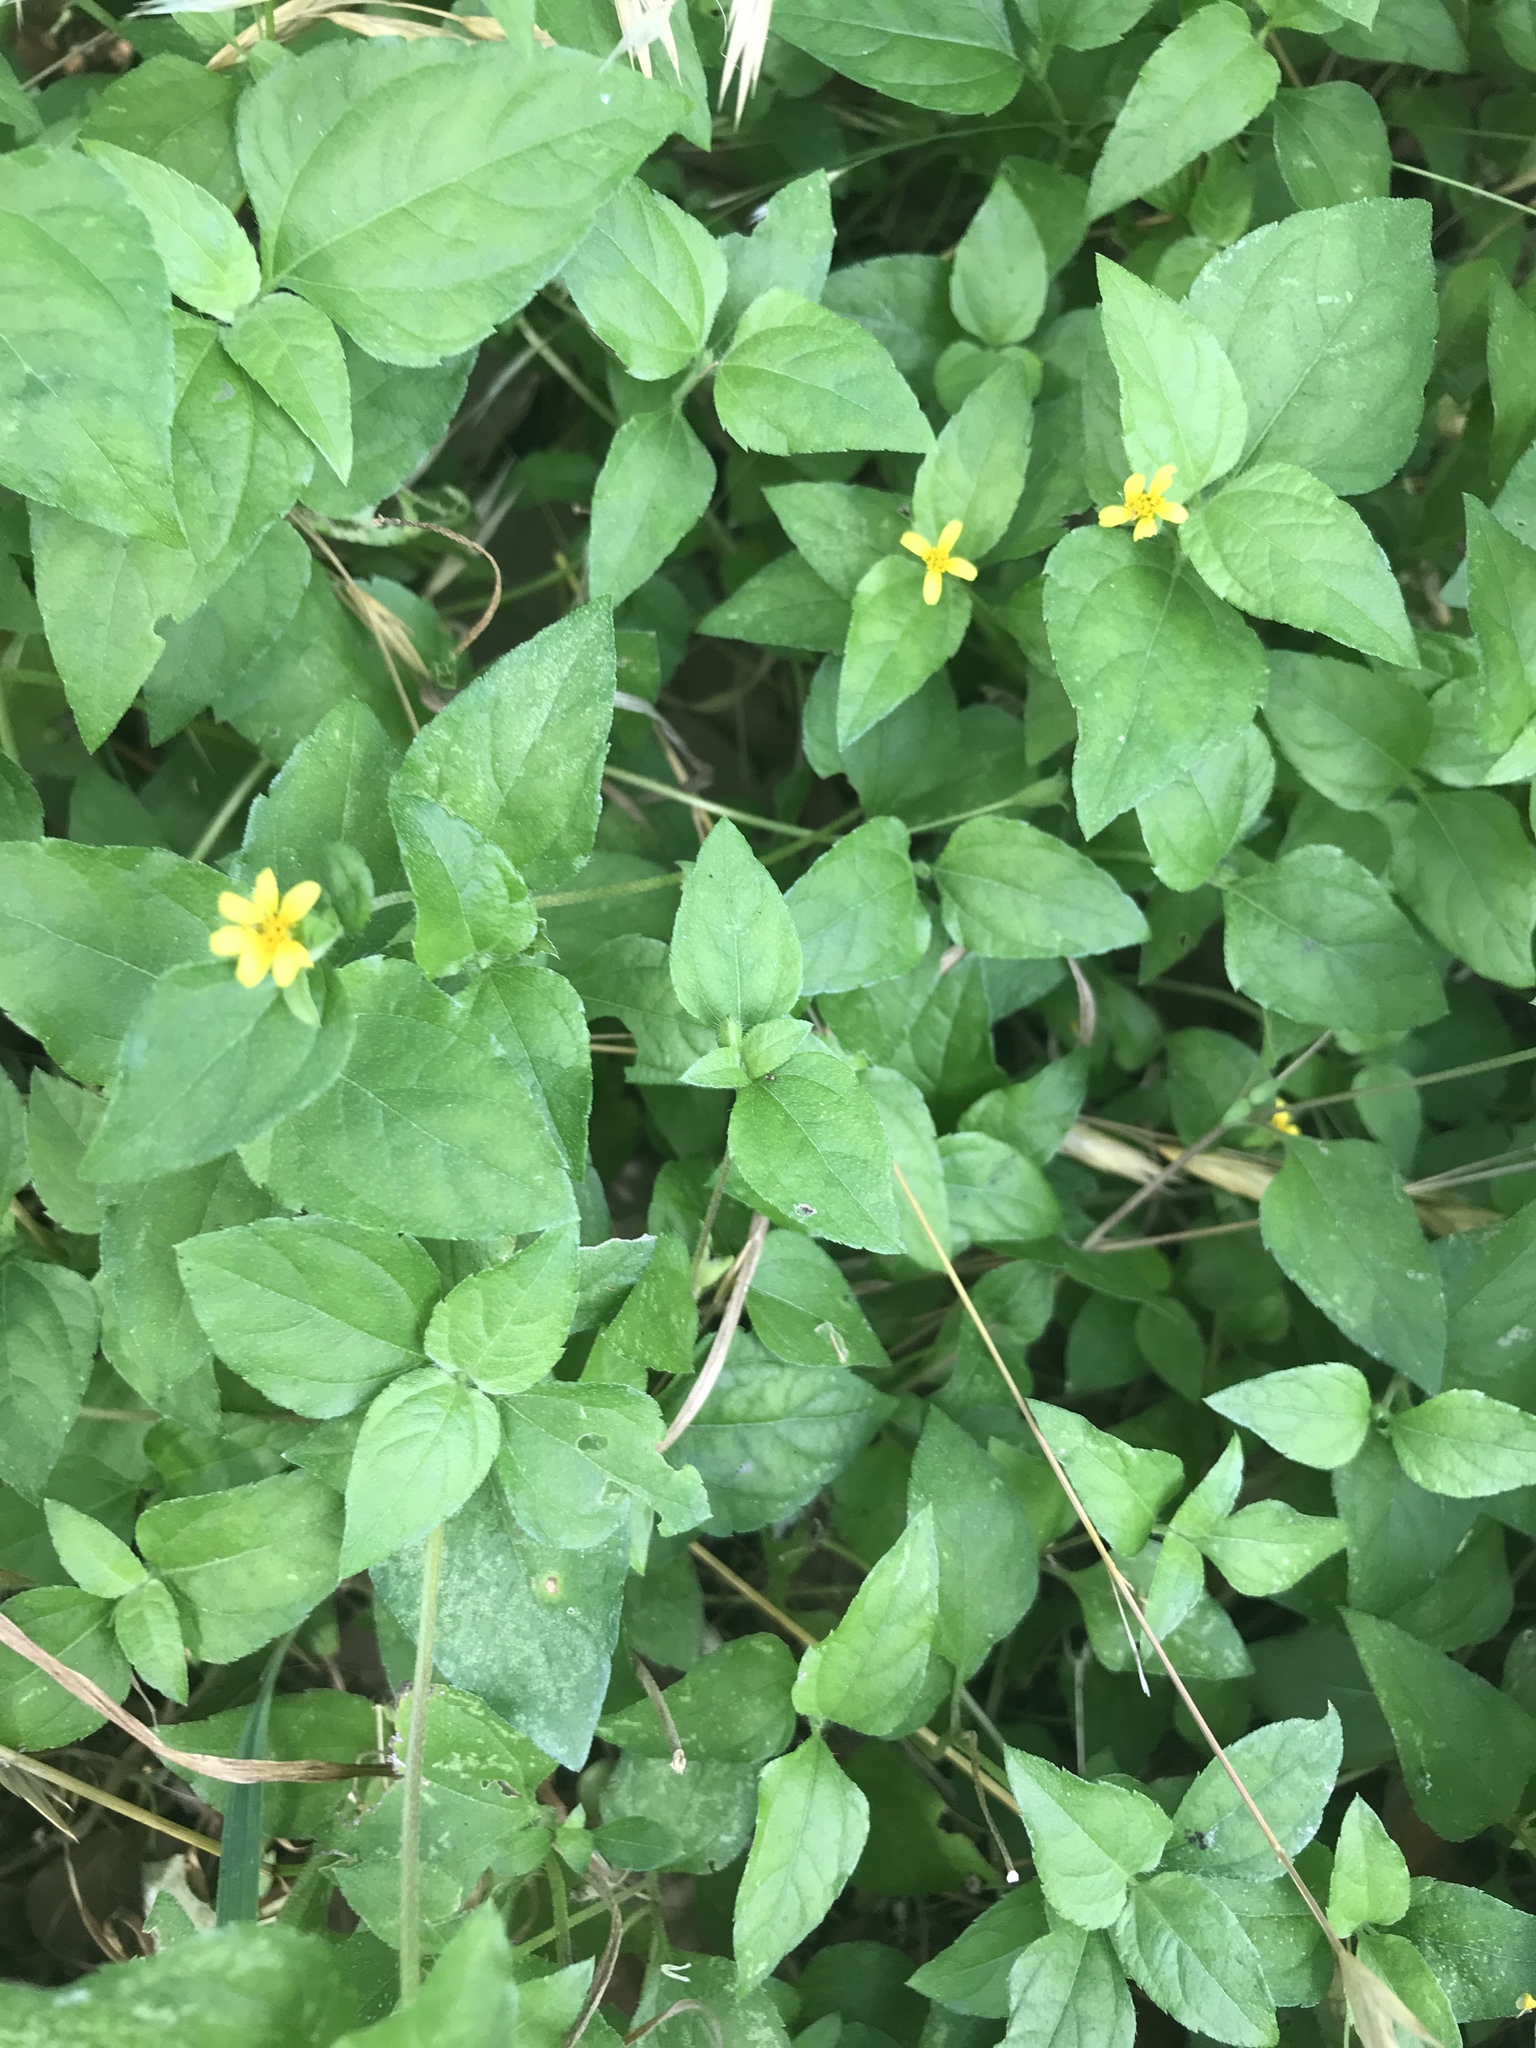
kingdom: Plantae
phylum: Tracheophyta
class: Magnoliopsida
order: Asterales
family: Asteraceae
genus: Calyptocarpus
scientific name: Calyptocarpus vialis
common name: Straggler daisy
